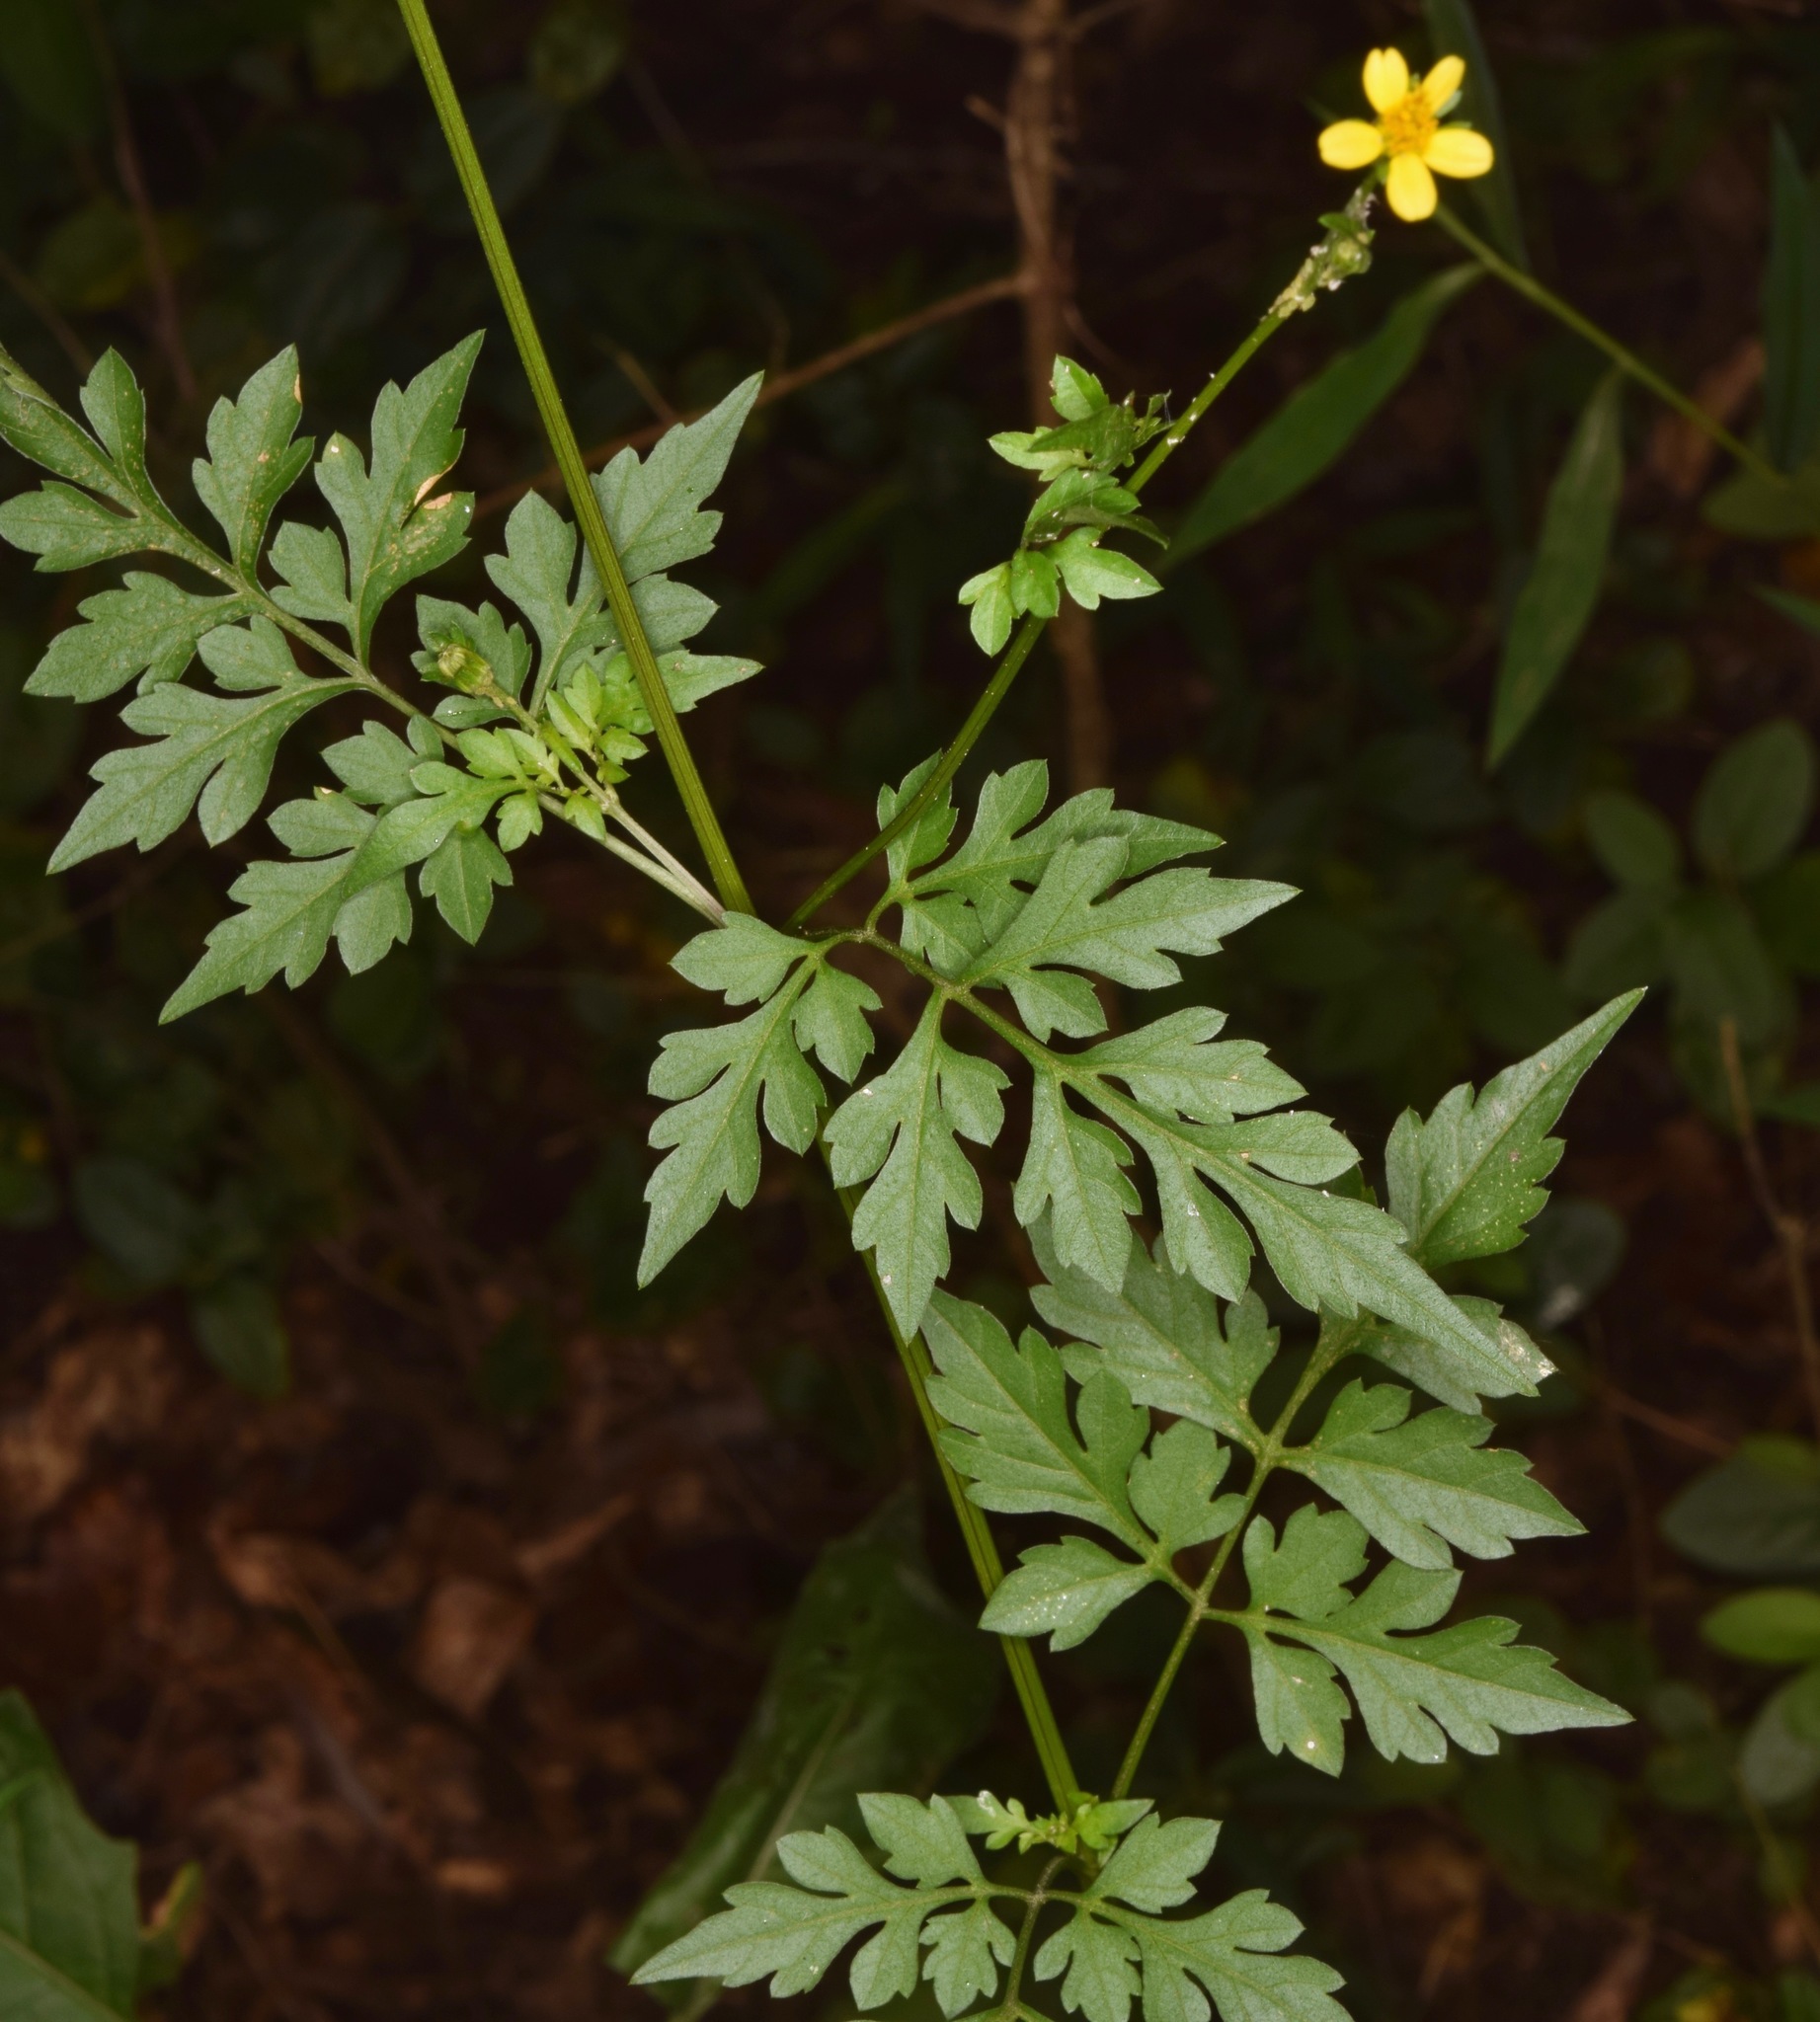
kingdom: Plantae
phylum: Tracheophyta
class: Magnoliopsida
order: Asterales
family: Asteraceae
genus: Bidens
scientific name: Bidens bipinnata
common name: Spanish-needles
